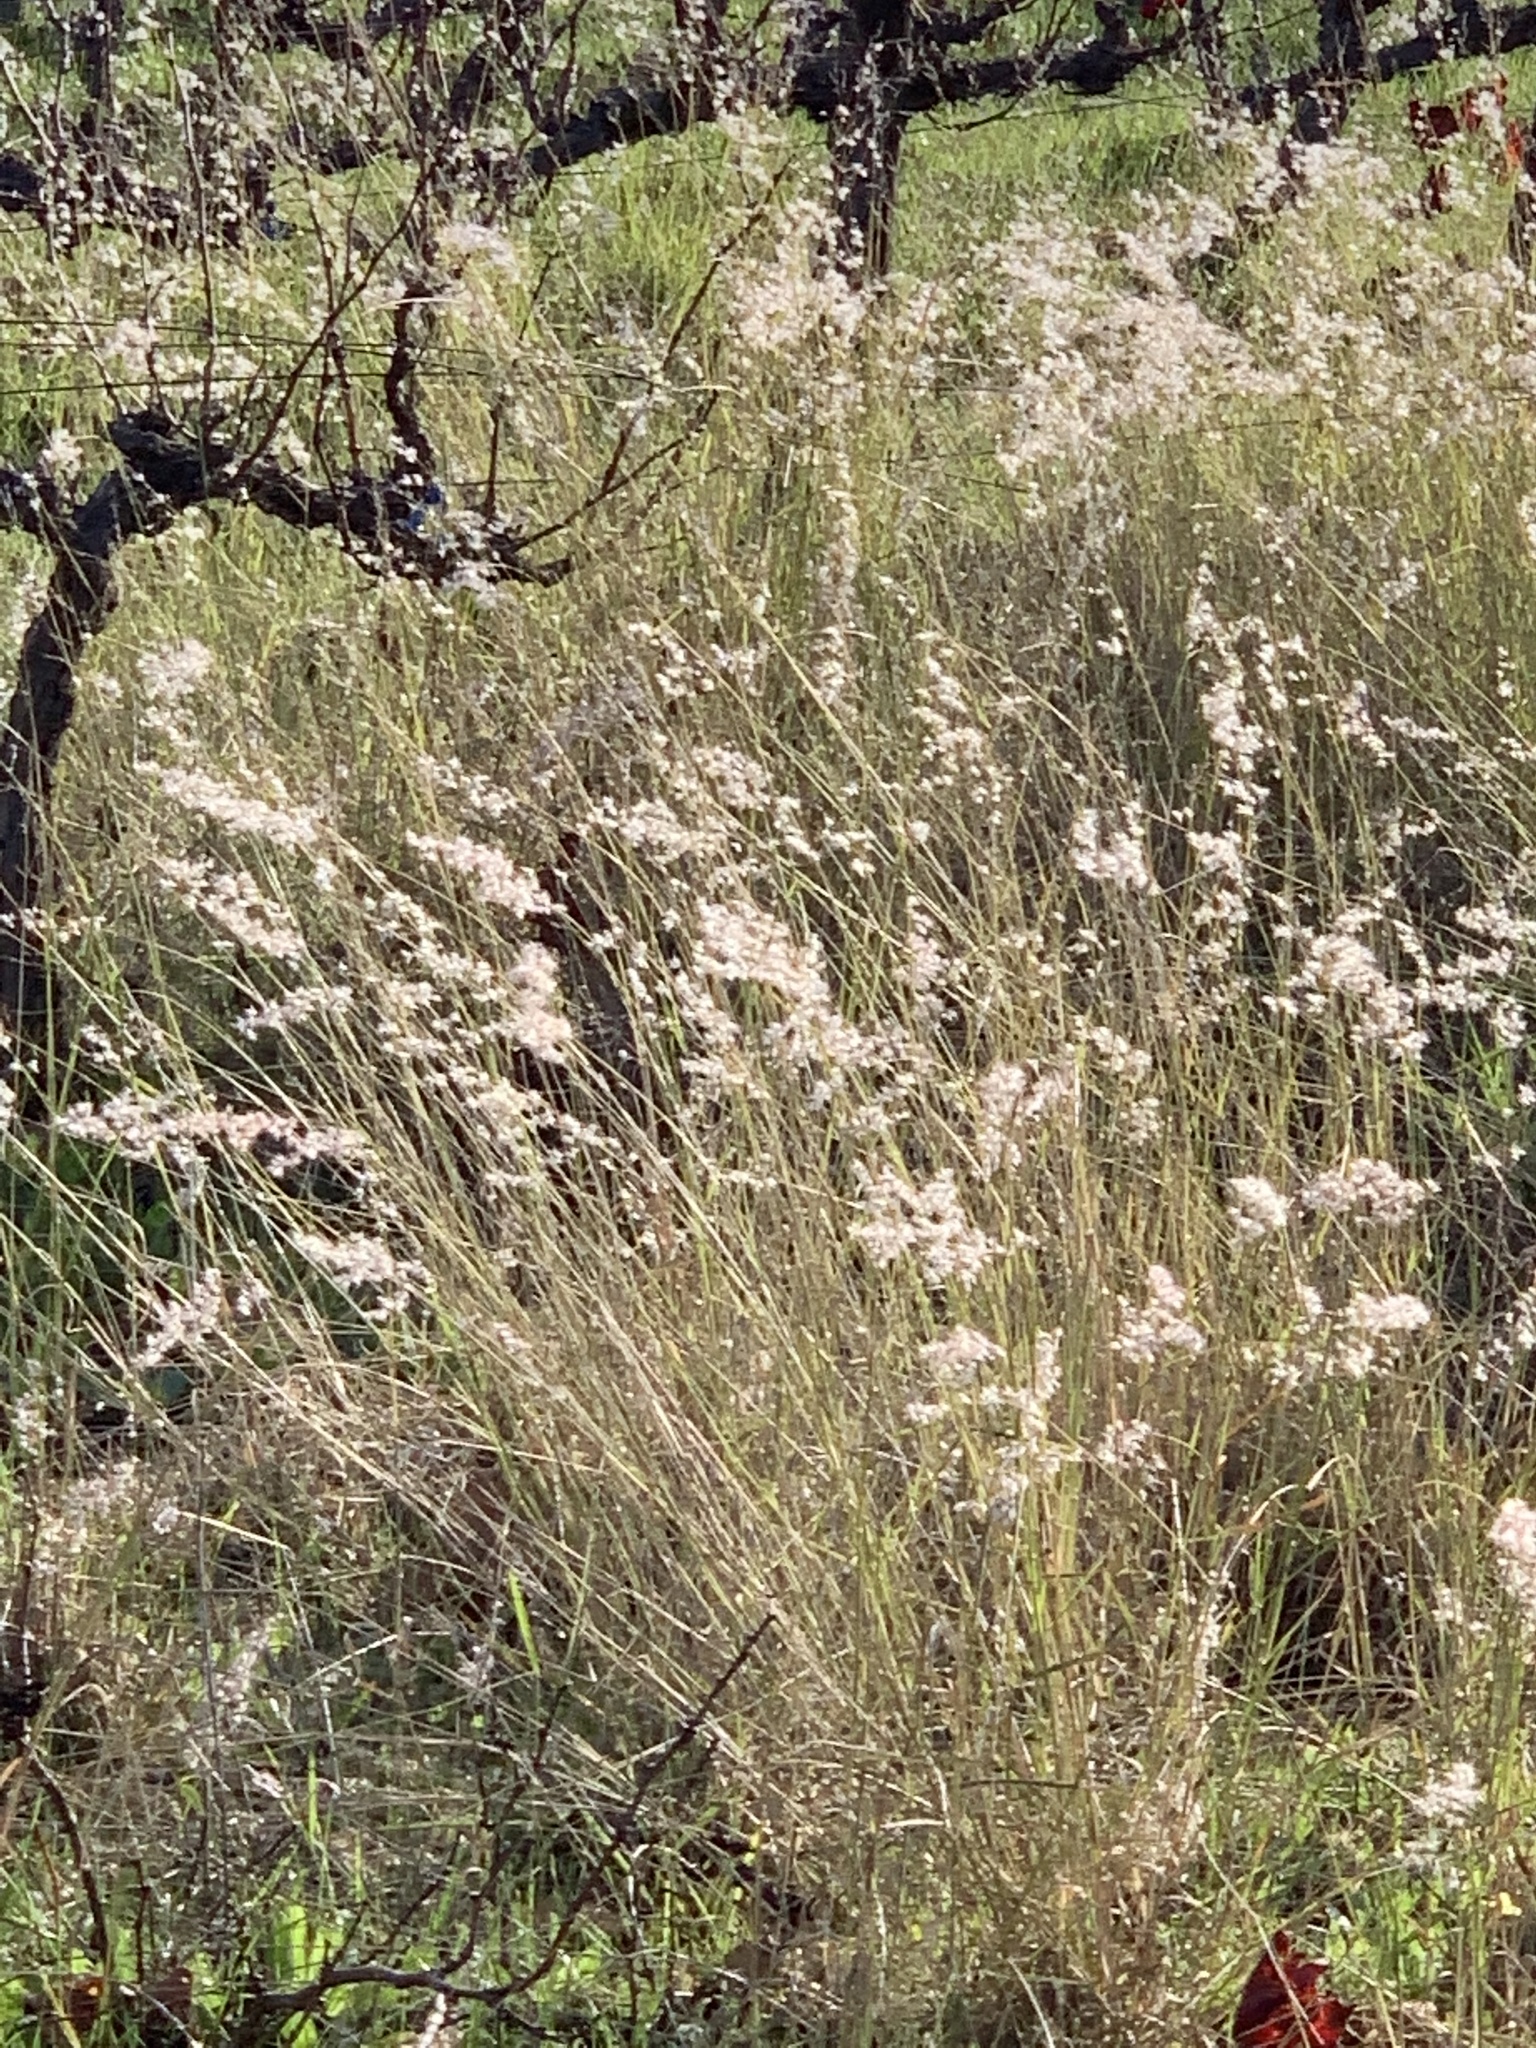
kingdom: Plantae
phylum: Tracheophyta
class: Liliopsida
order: Poales
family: Poaceae
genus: Melinis
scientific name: Melinis repens
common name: Rose natal grass
